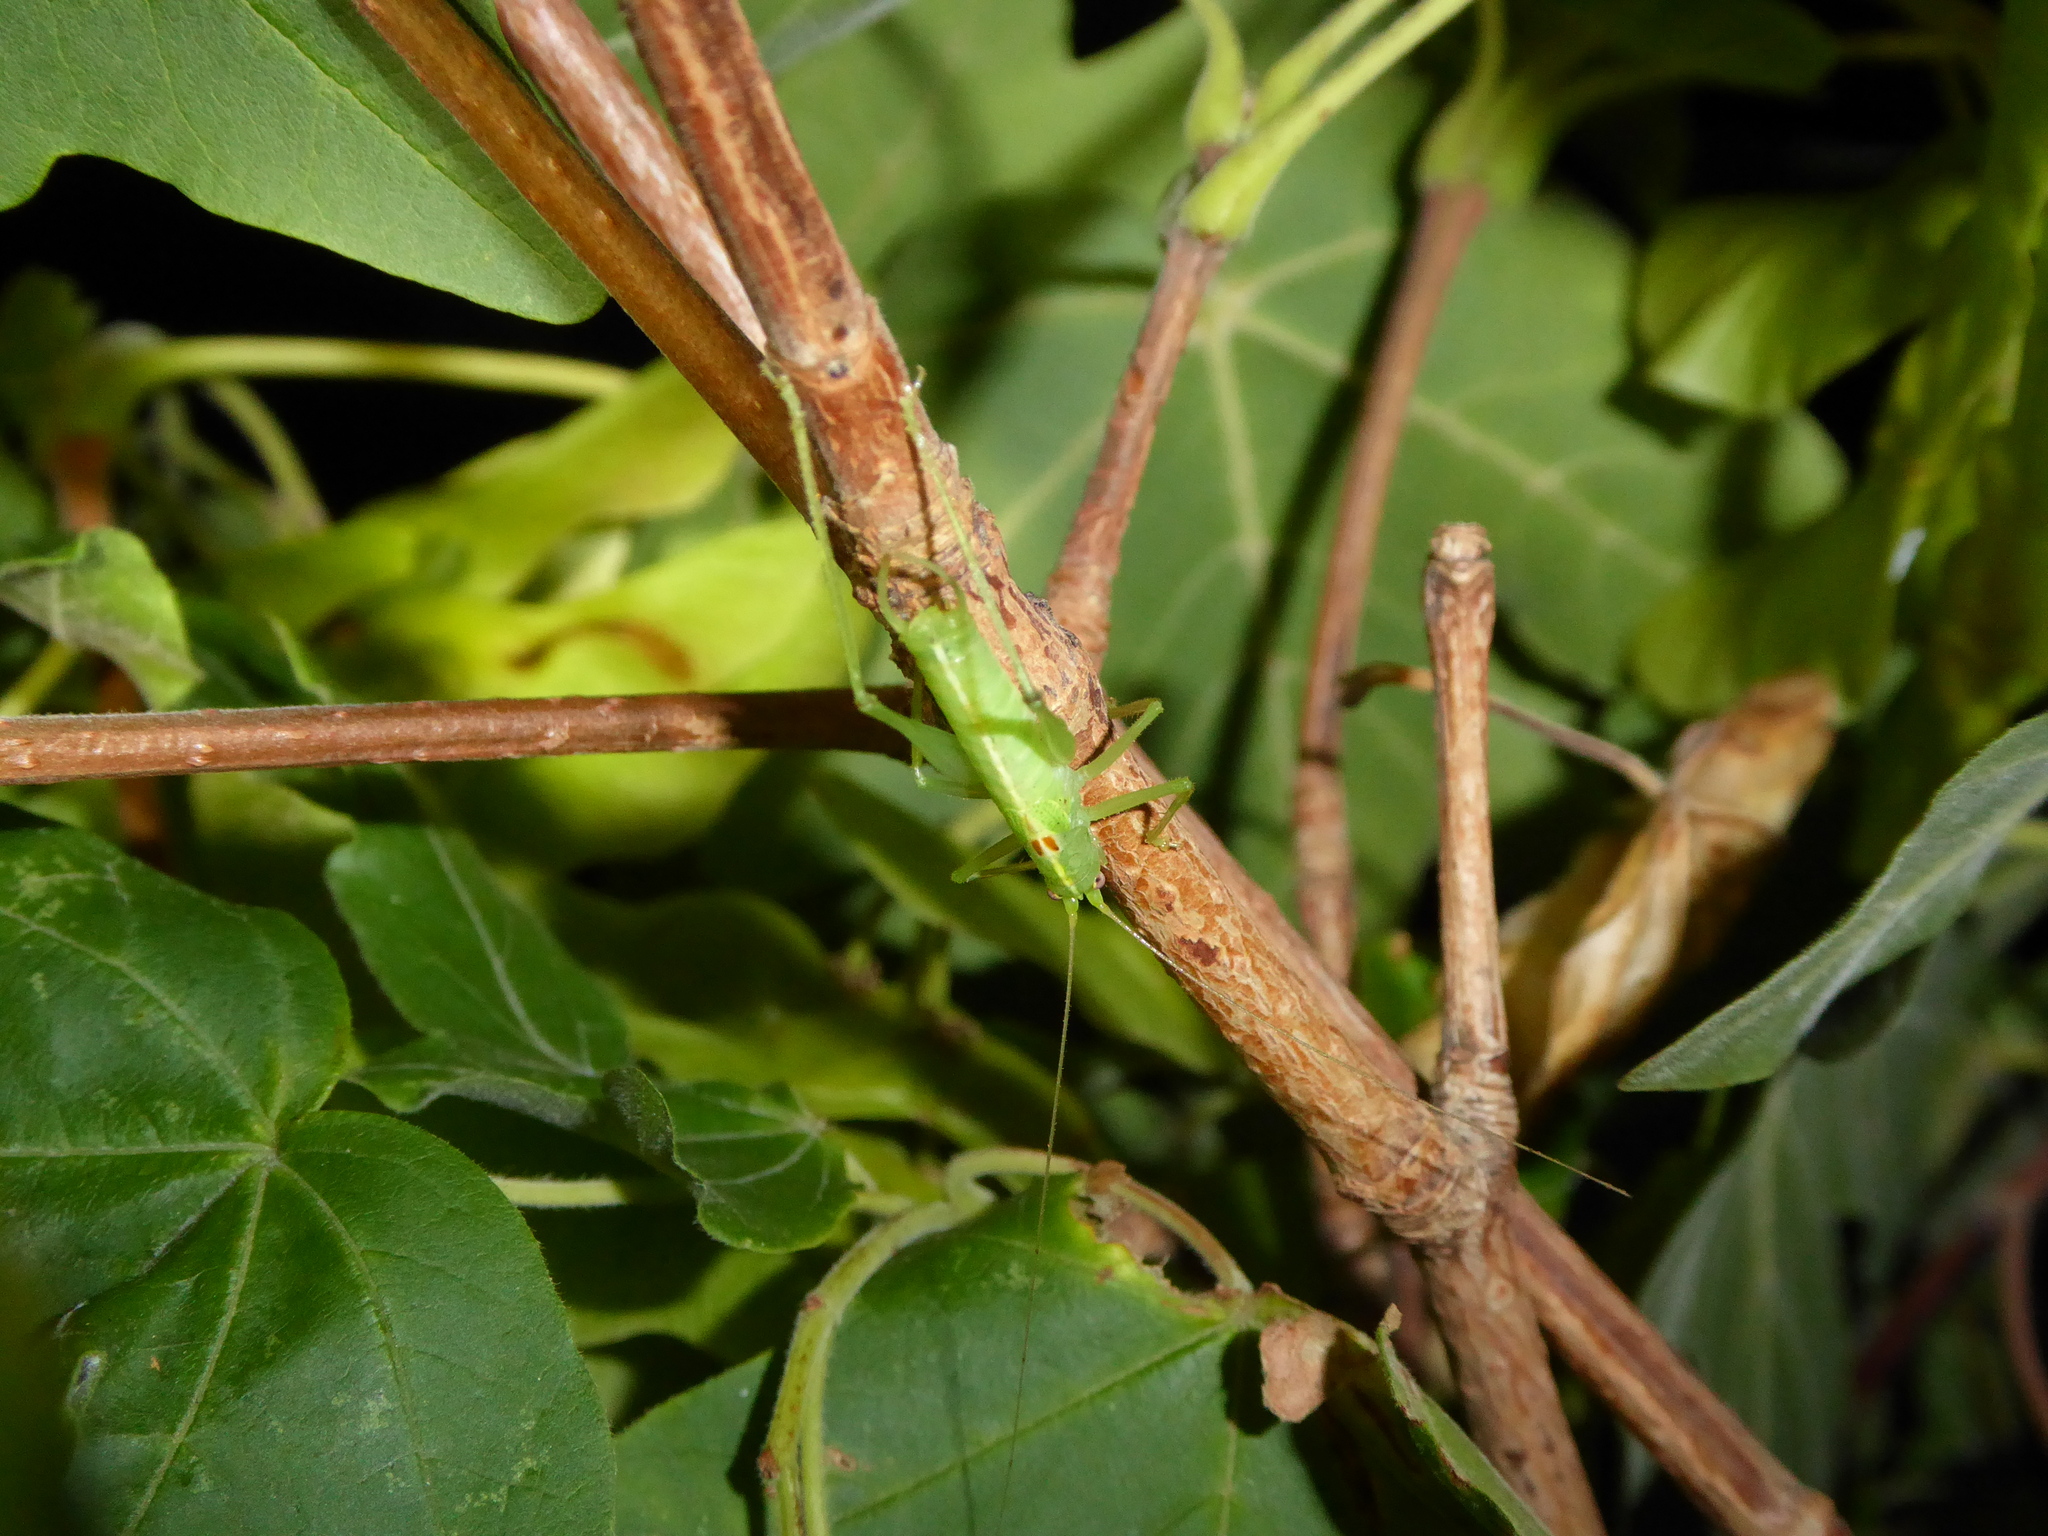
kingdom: Animalia
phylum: Arthropoda
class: Insecta
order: Orthoptera
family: Tettigoniidae
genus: Meconema
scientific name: Meconema meridionale
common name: Southern oak bush-cricket
